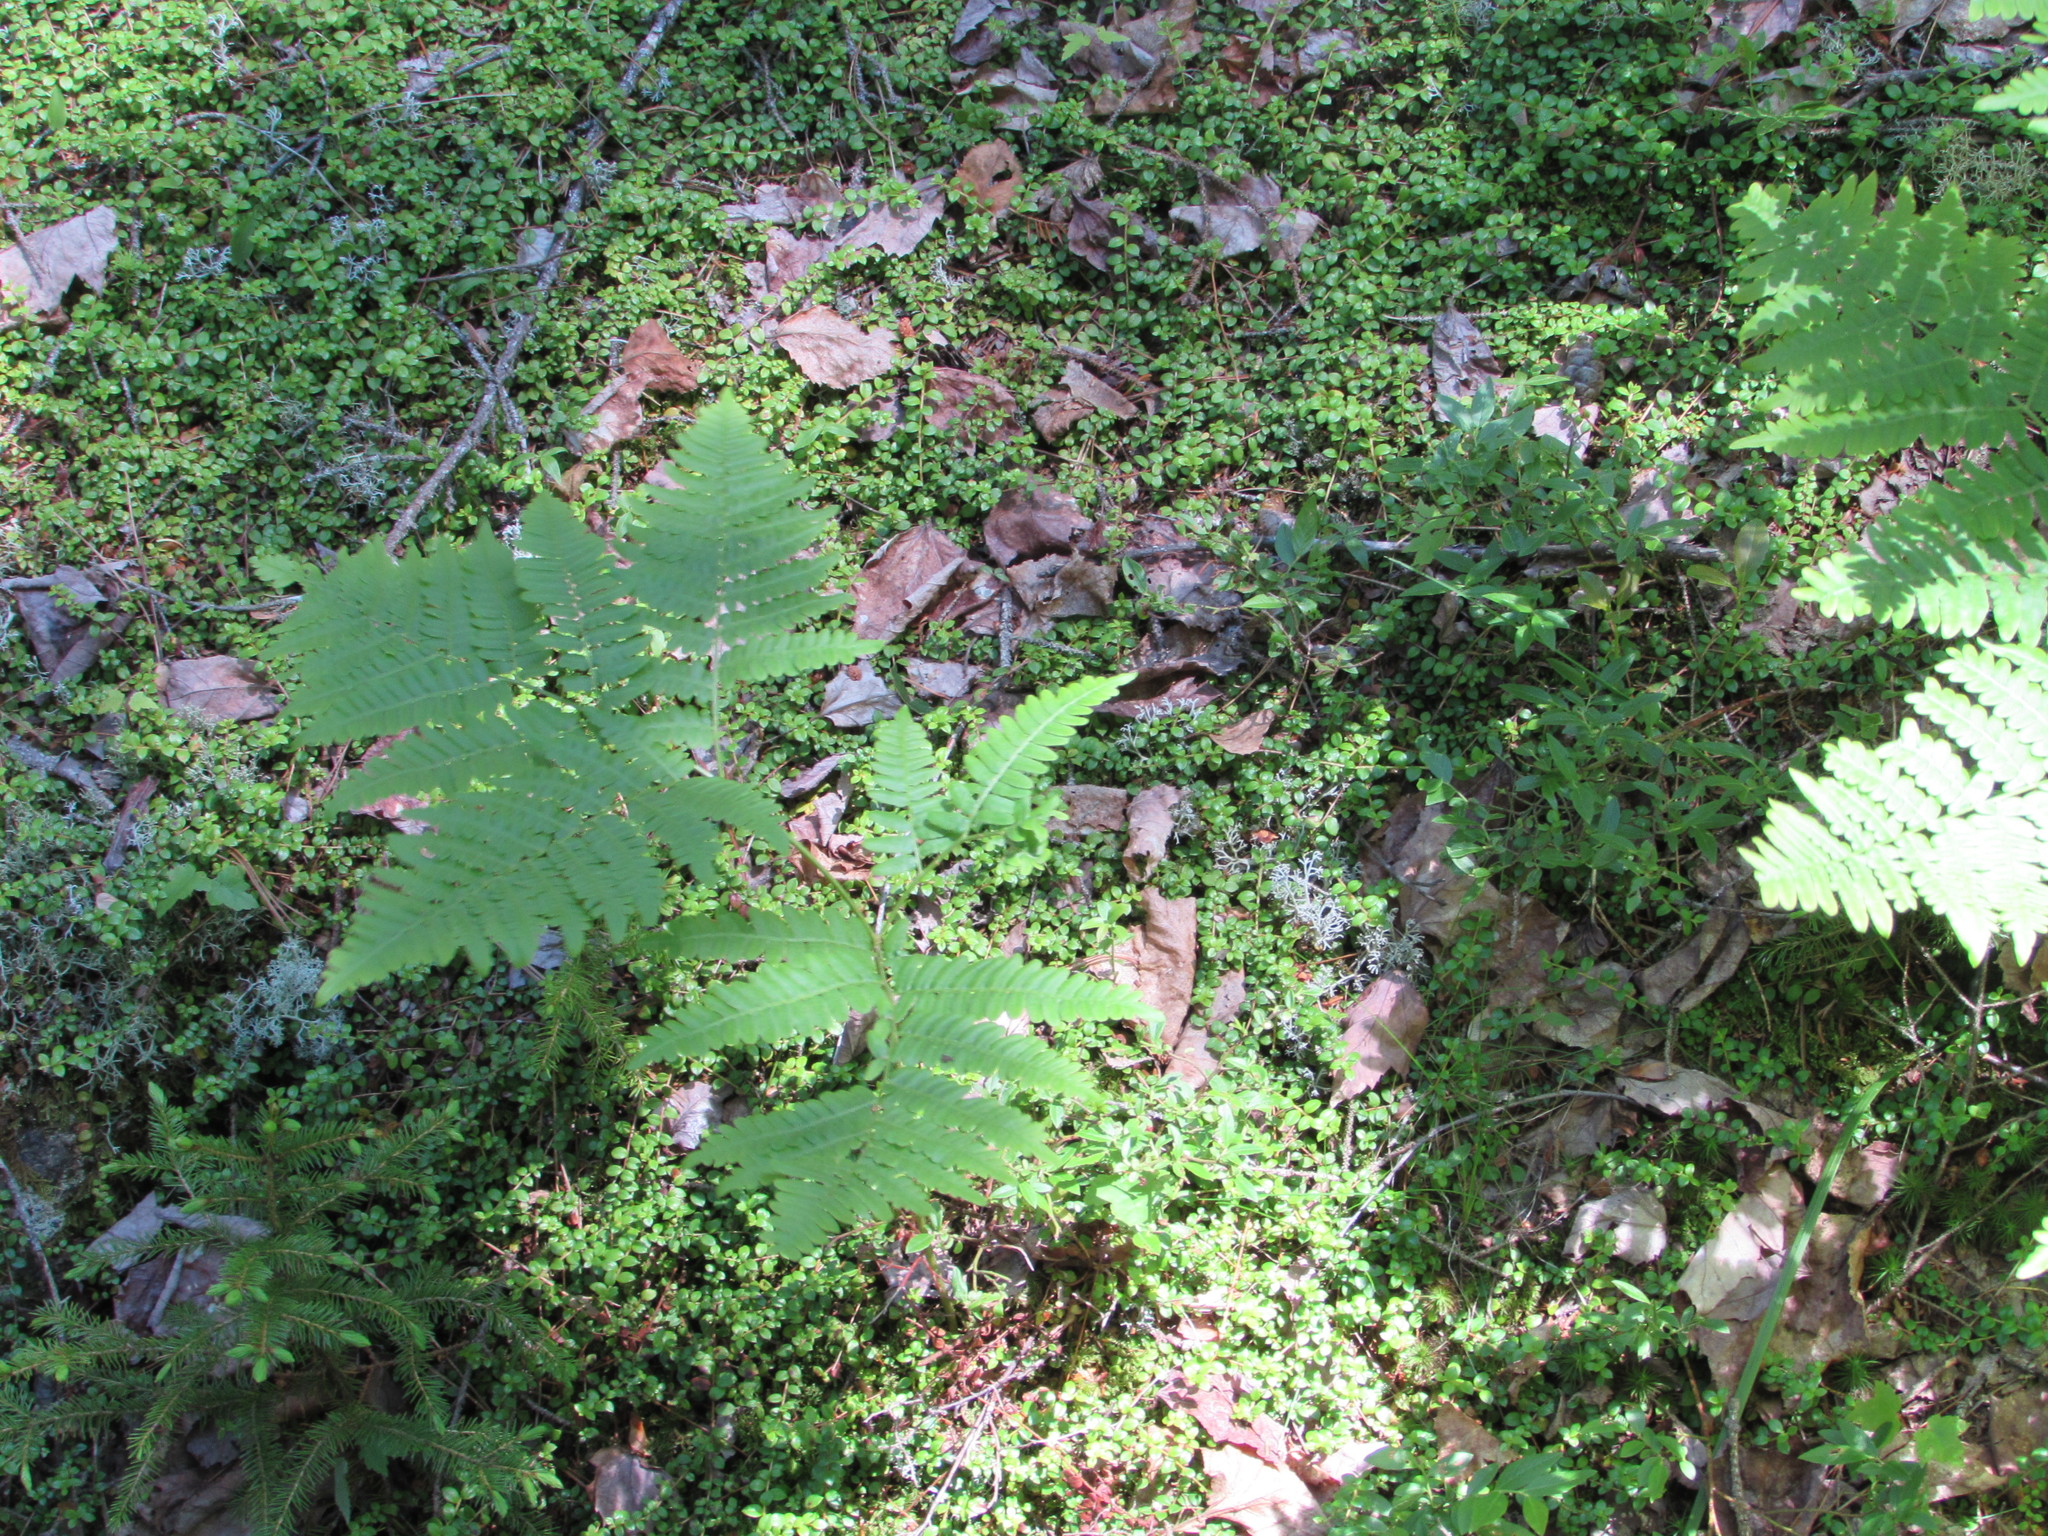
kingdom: Plantae
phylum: Tracheophyta
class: Magnoliopsida
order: Ericales
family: Ericaceae
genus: Gaultheria
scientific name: Gaultheria hispidula
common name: Cancer wintergreen
